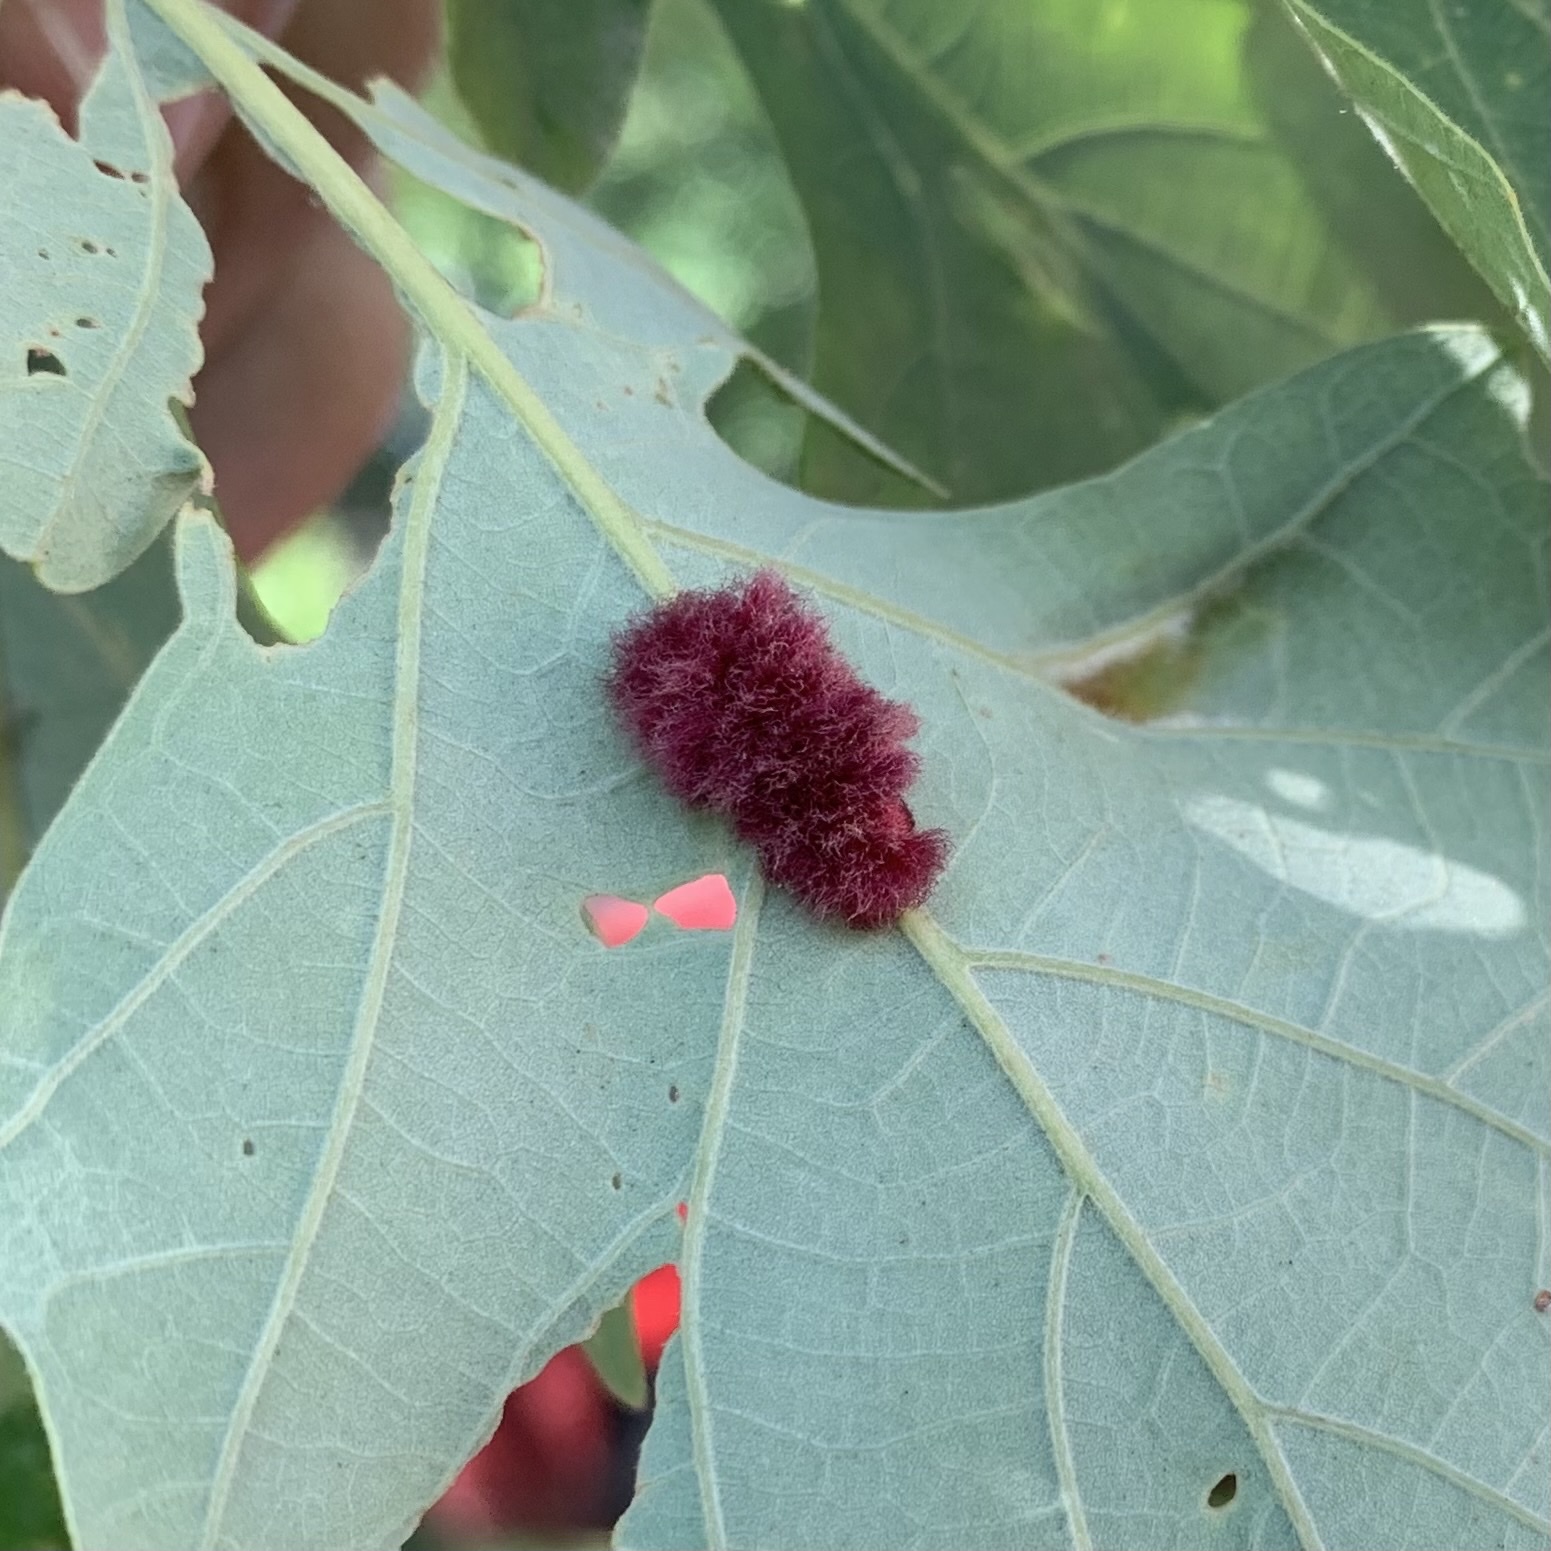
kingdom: Animalia
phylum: Arthropoda
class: Insecta
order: Hymenoptera
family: Cynipidae
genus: Andricus
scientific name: Andricus Druon ignotum
